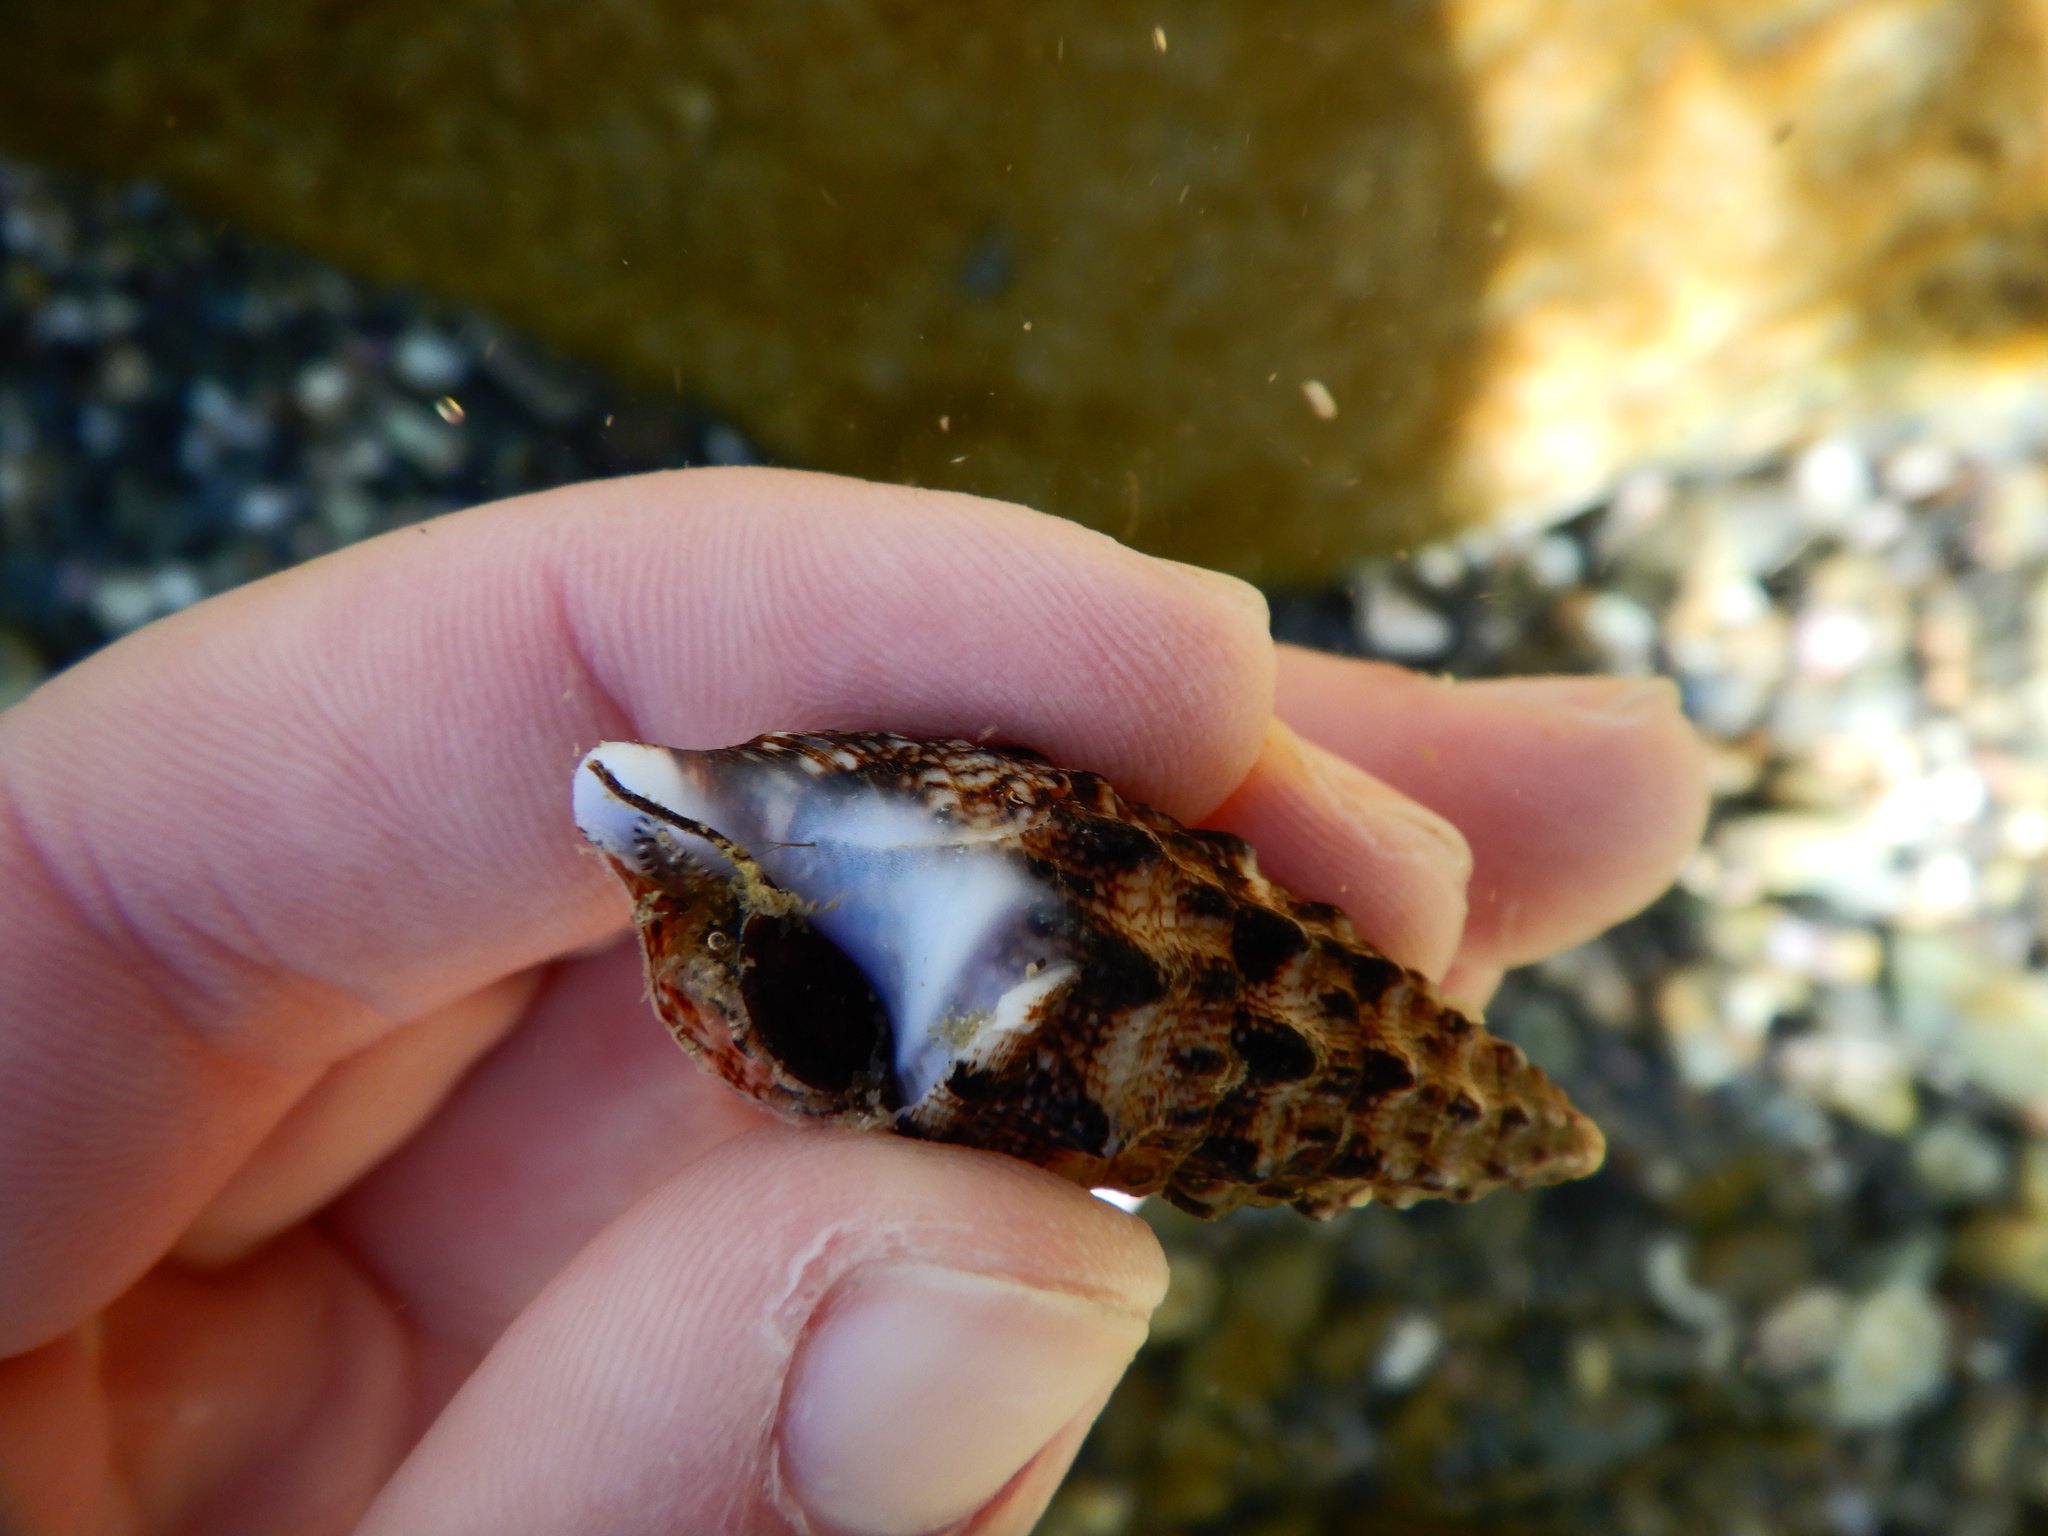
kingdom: Animalia
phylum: Mollusca
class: Gastropoda
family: Cerithiidae
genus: Cerithium
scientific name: Cerithium vulgatum
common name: European cerith
